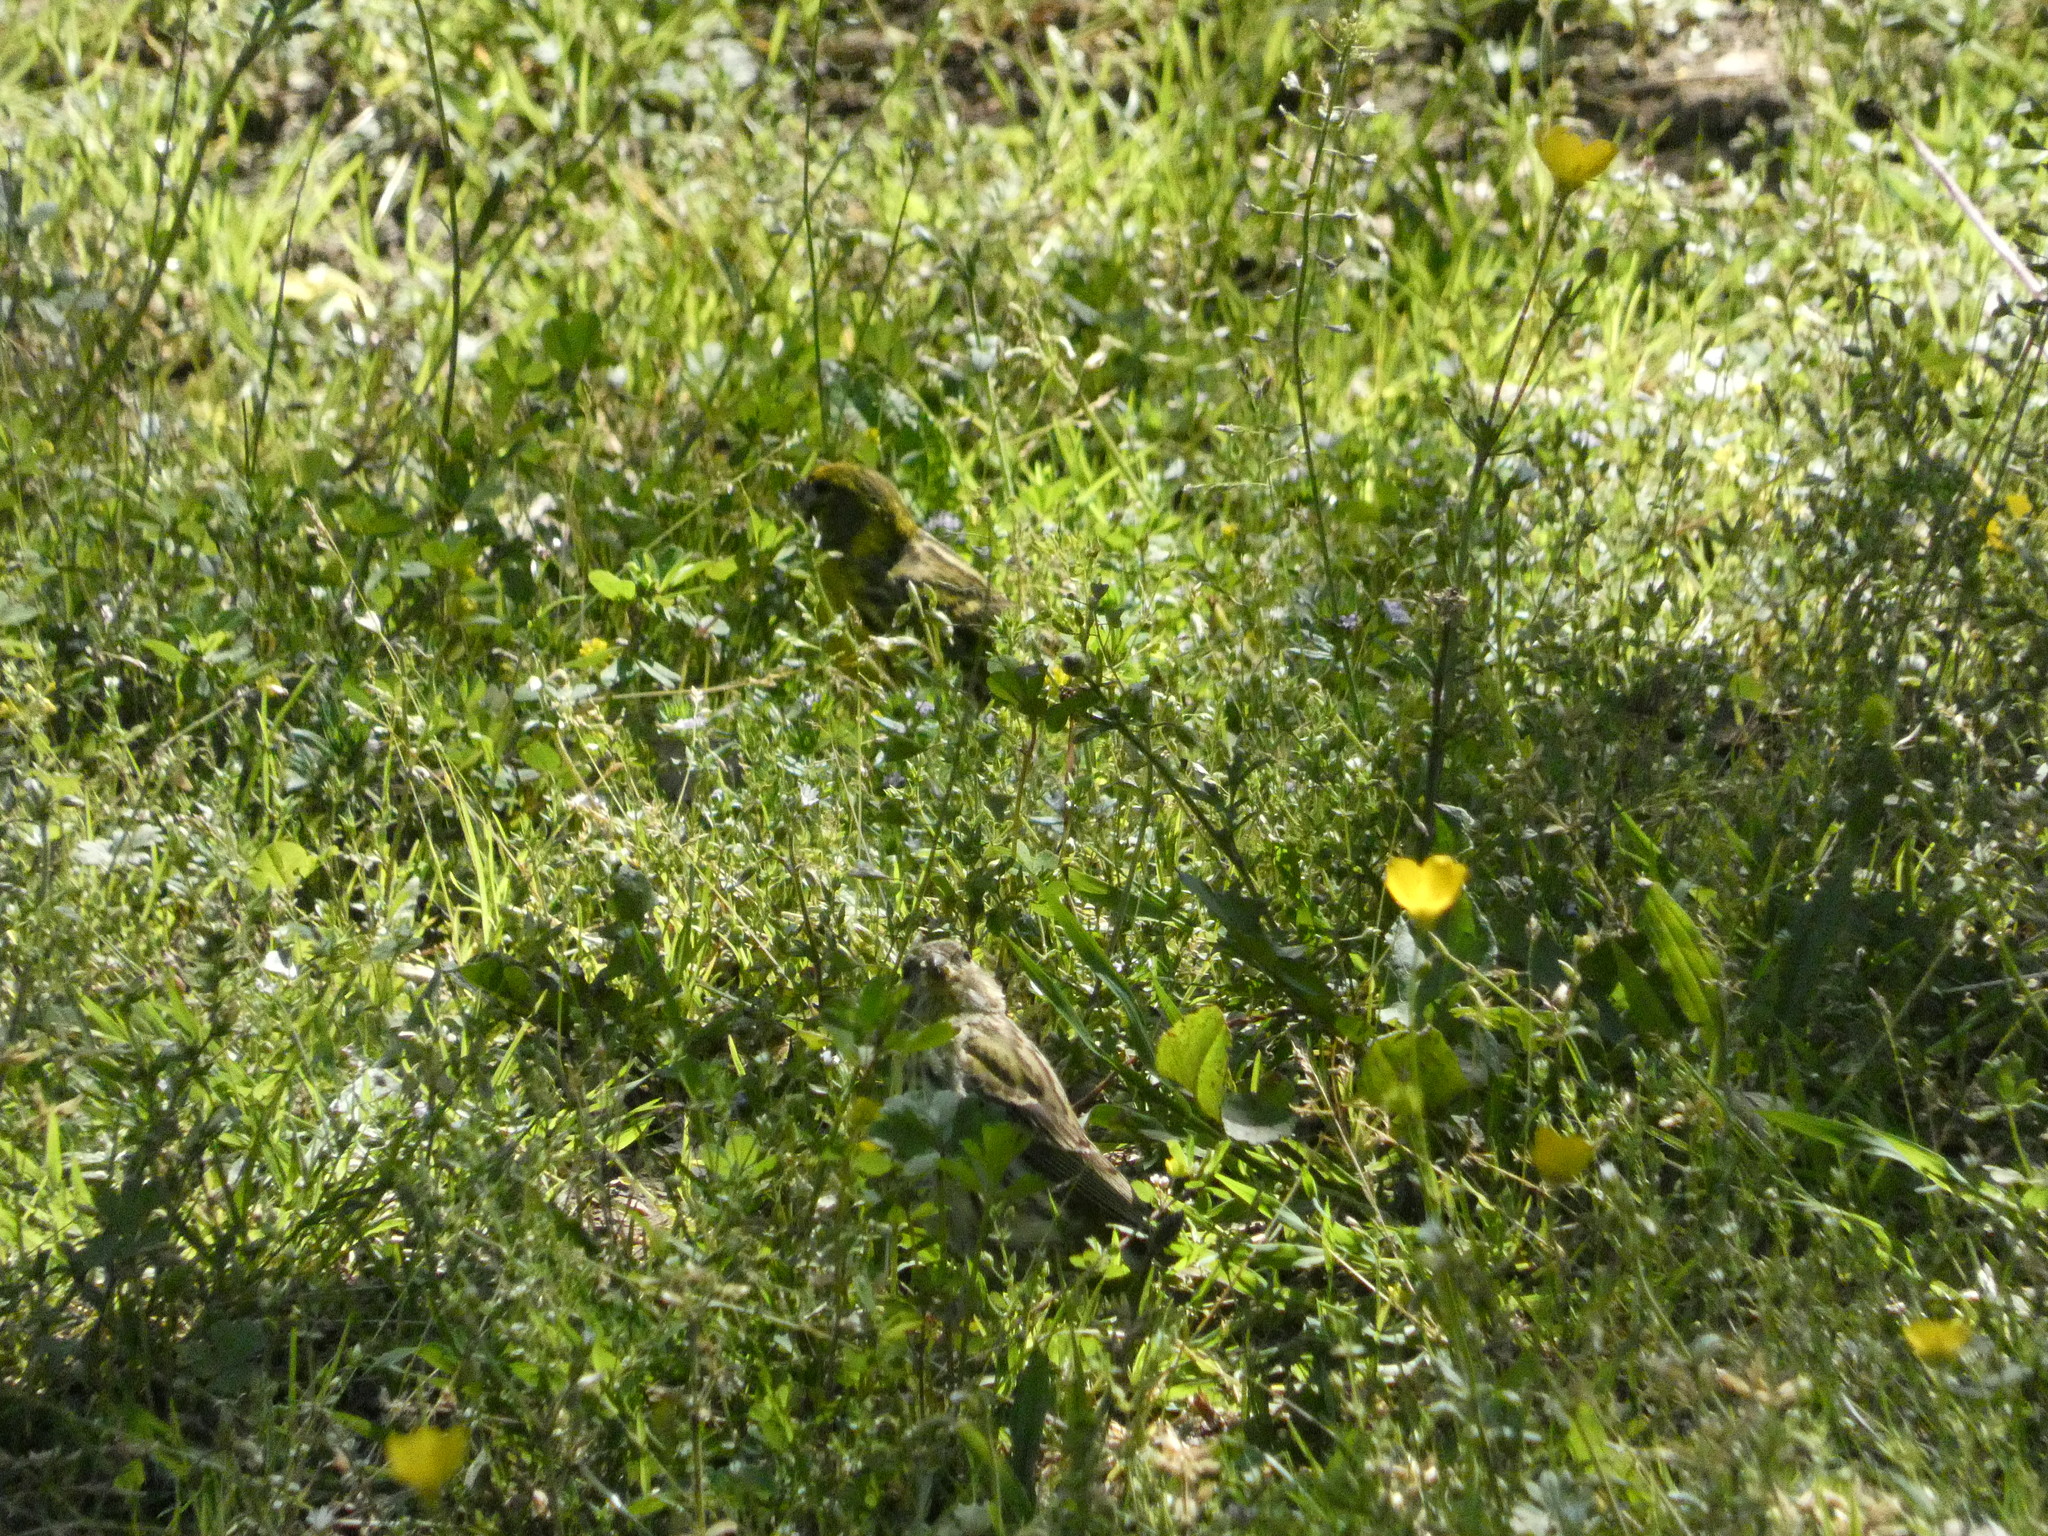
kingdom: Animalia
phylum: Chordata
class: Aves
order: Passeriformes
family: Fringillidae
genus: Serinus
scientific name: Serinus serinus
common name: European serin
